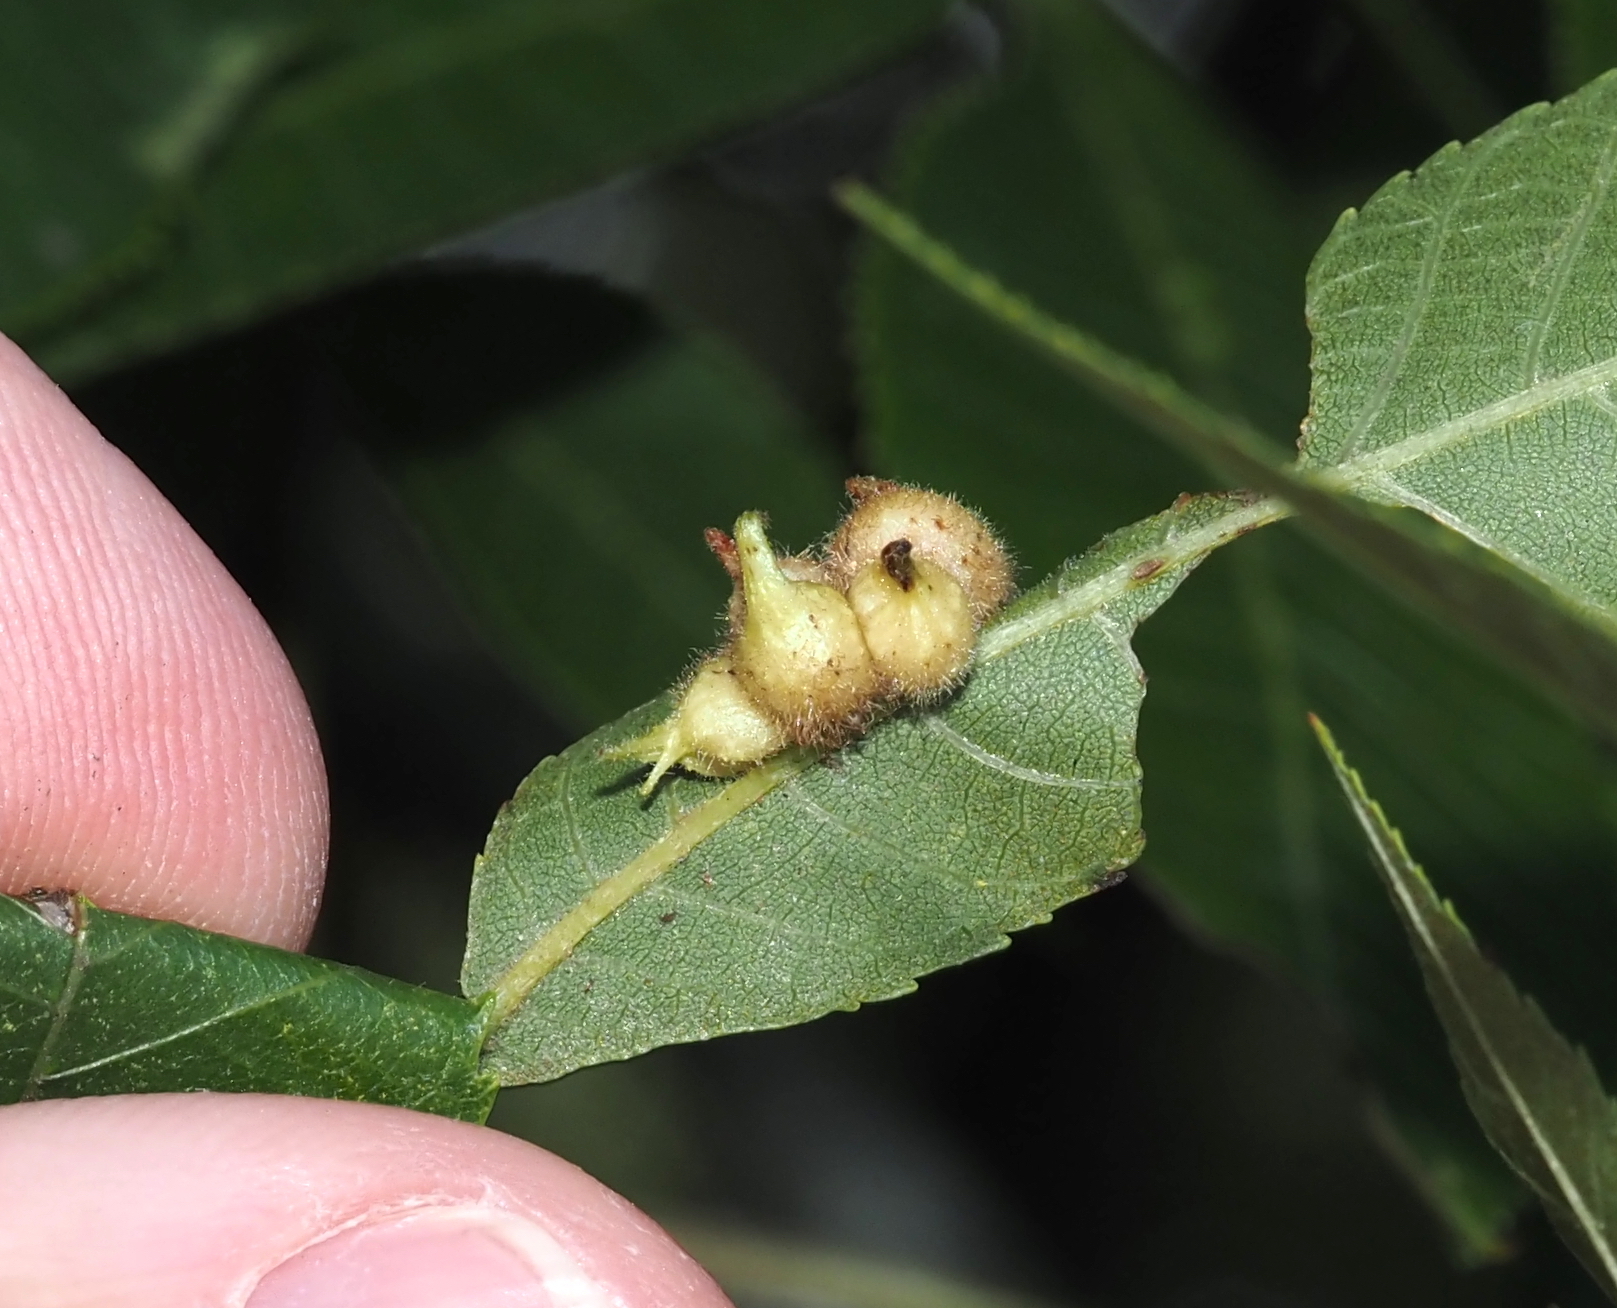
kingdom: Animalia
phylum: Arthropoda
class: Insecta
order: Diptera
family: Cecidomyiidae
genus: Caryomyia
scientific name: Caryomyia ansericollum
